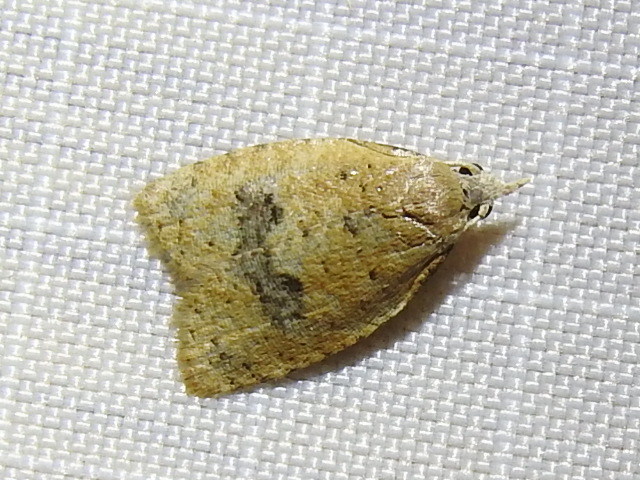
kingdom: Animalia
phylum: Arthropoda
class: Insecta
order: Lepidoptera
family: Tortricidae
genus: Sparganothoides
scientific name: Sparganothoides lentiginosana
